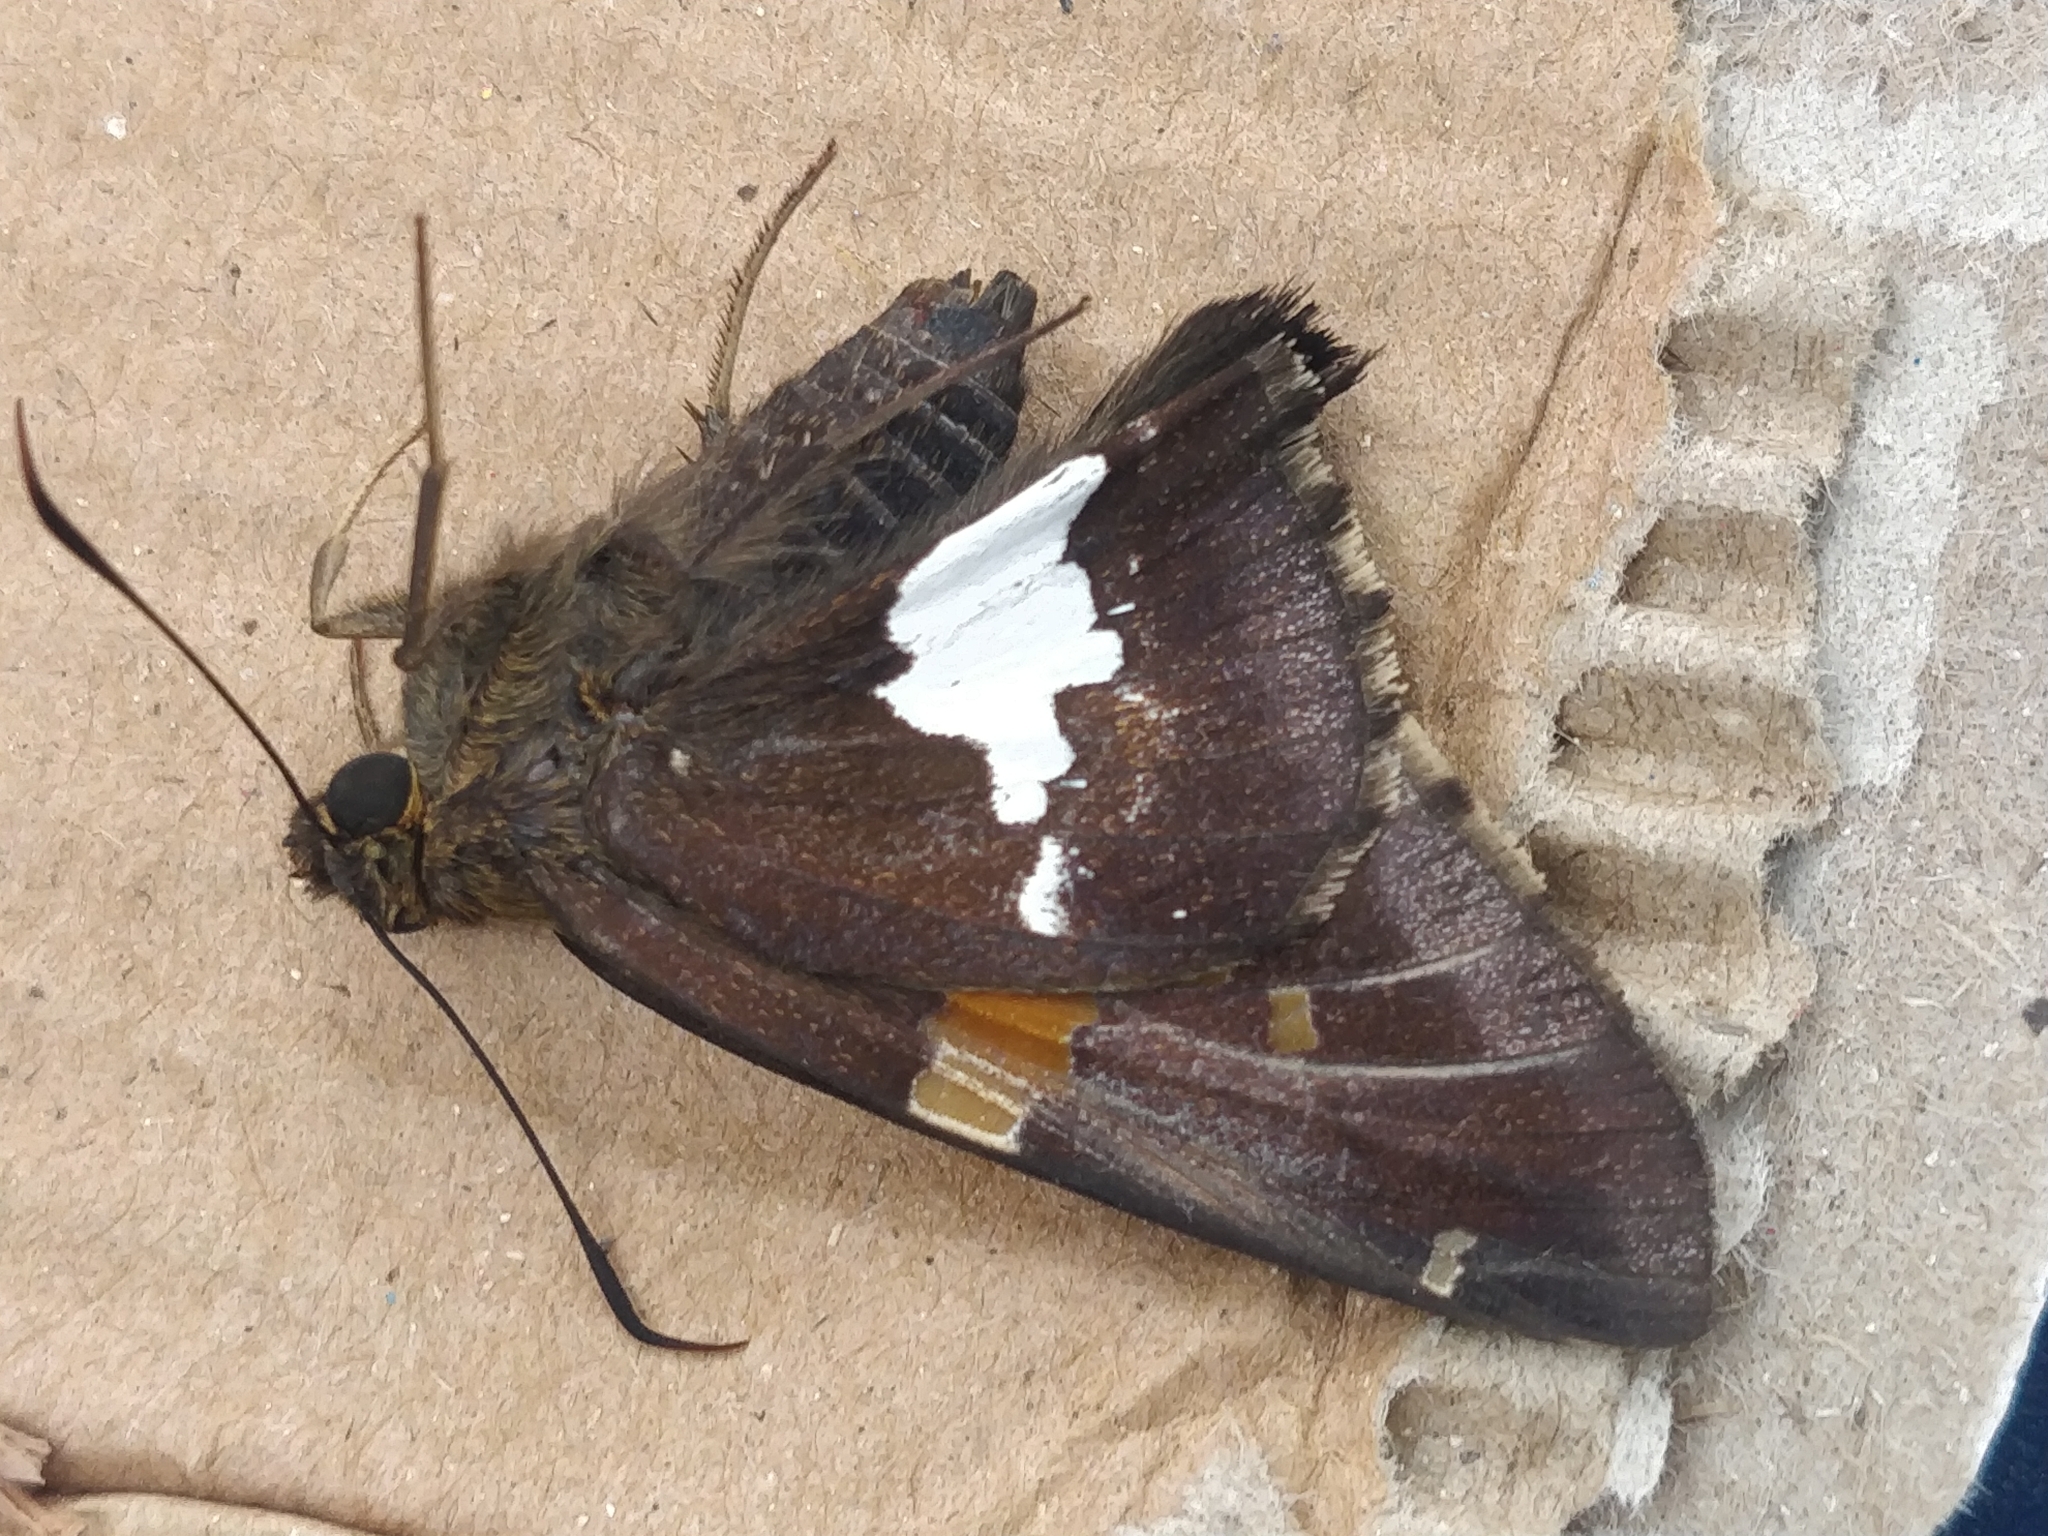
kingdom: Animalia
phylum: Arthropoda
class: Insecta
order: Lepidoptera
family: Hesperiidae
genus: Epargyreus
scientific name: Epargyreus clarus
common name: Silver-spotted skipper
